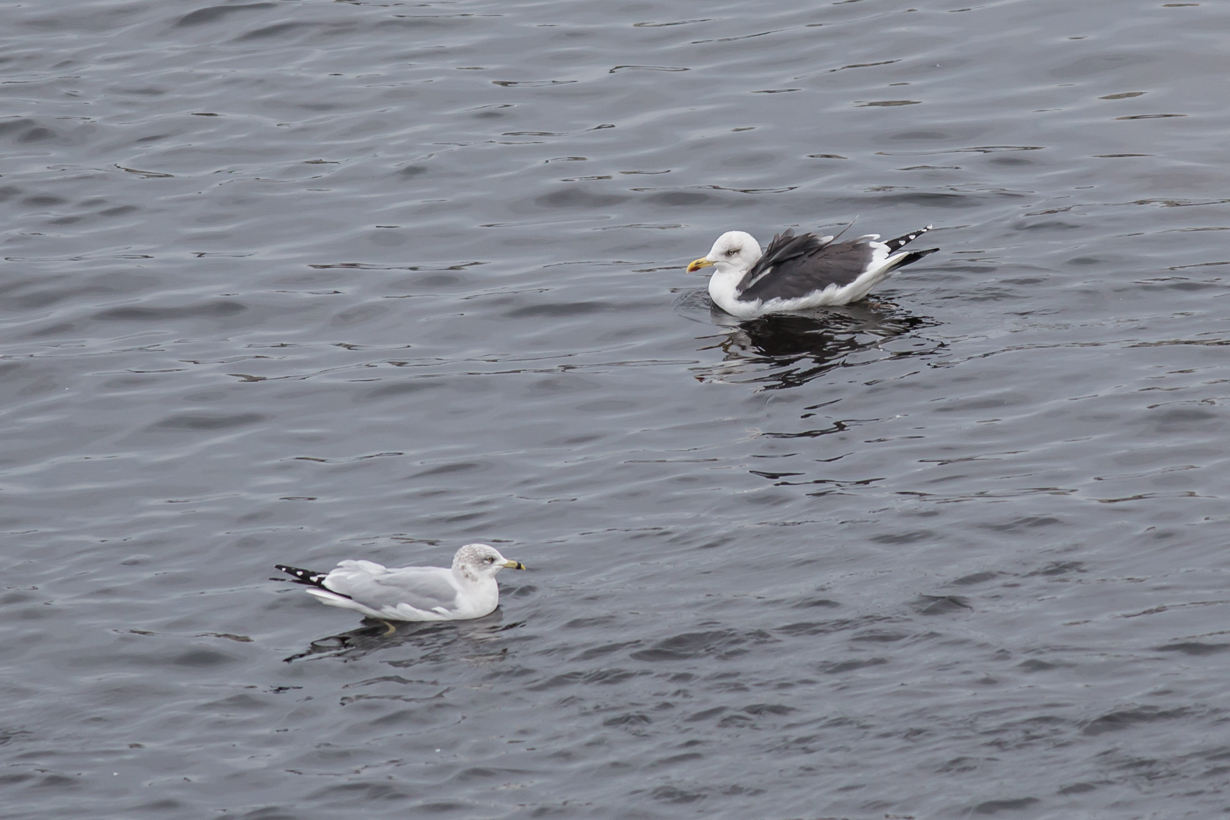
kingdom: Animalia
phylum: Chordata
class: Aves
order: Charadriiformes
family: Laridae
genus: Larus
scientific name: Larus fuscus
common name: Lesser black-backed gull
